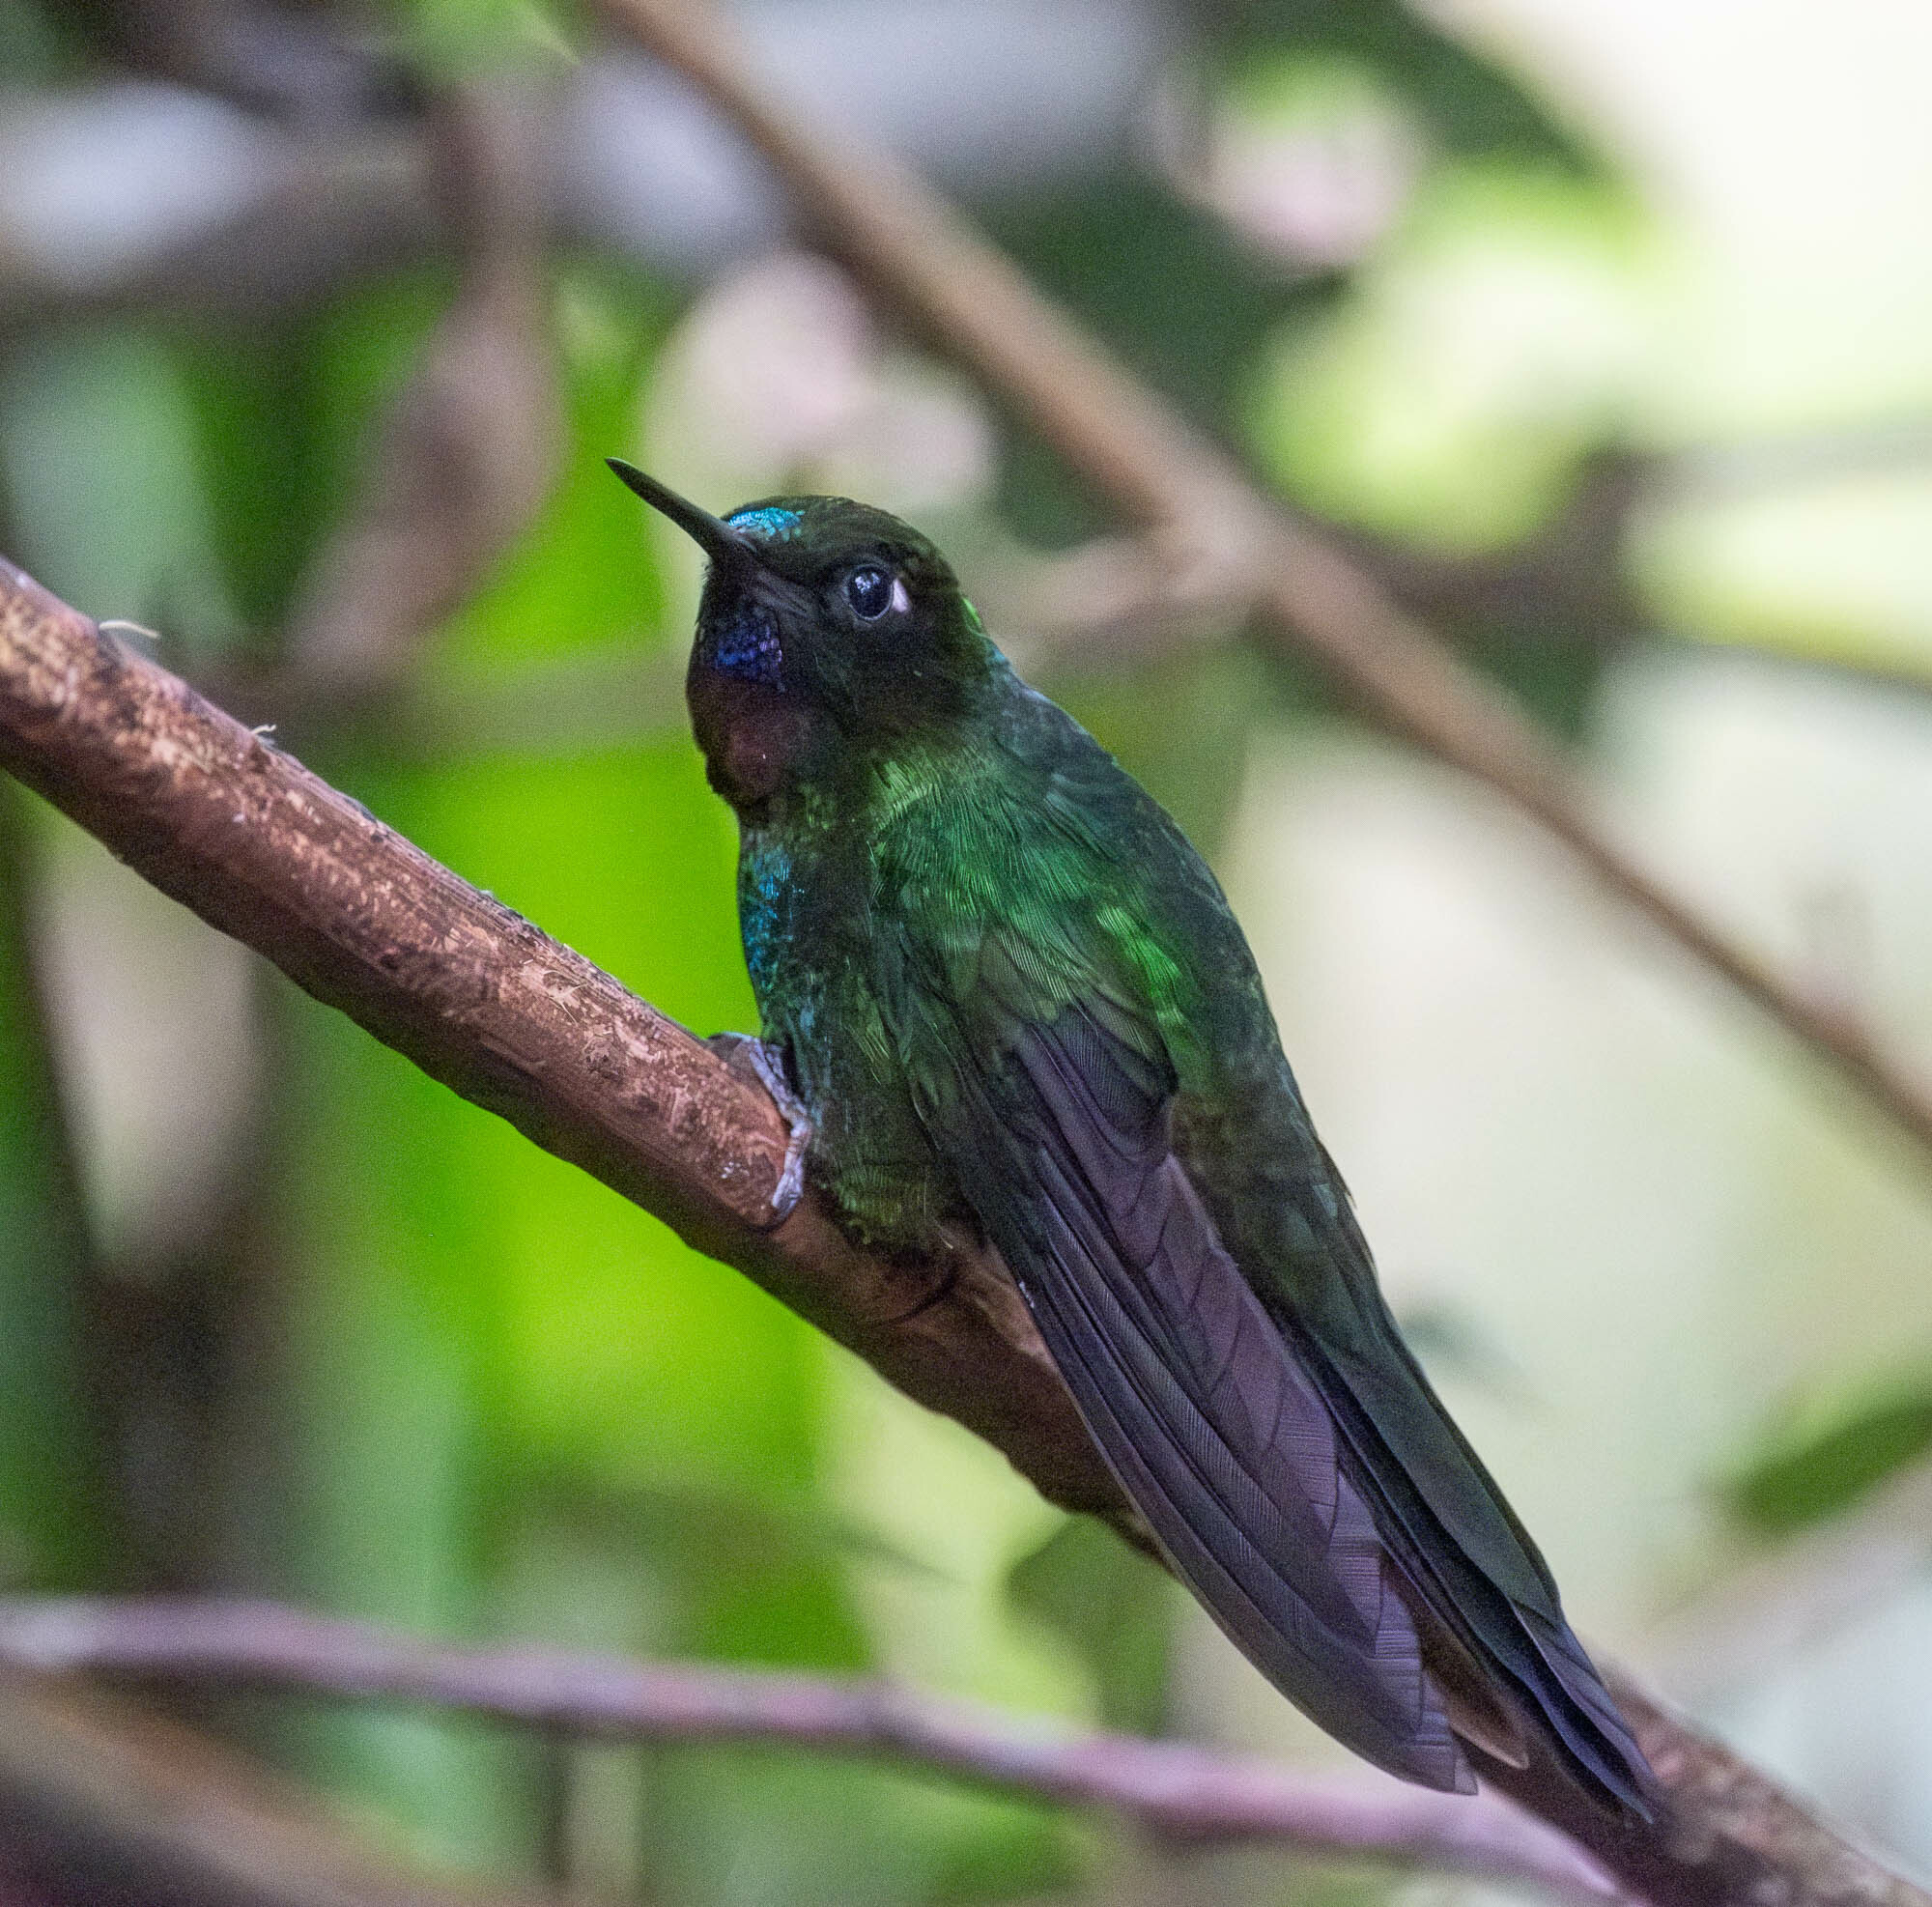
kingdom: Animalia
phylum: Chordata
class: Aves
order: Apodiformes
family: Trochilidae
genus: Heliangelus
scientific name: Heliangelus exortis
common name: Tourmaline sunangel
